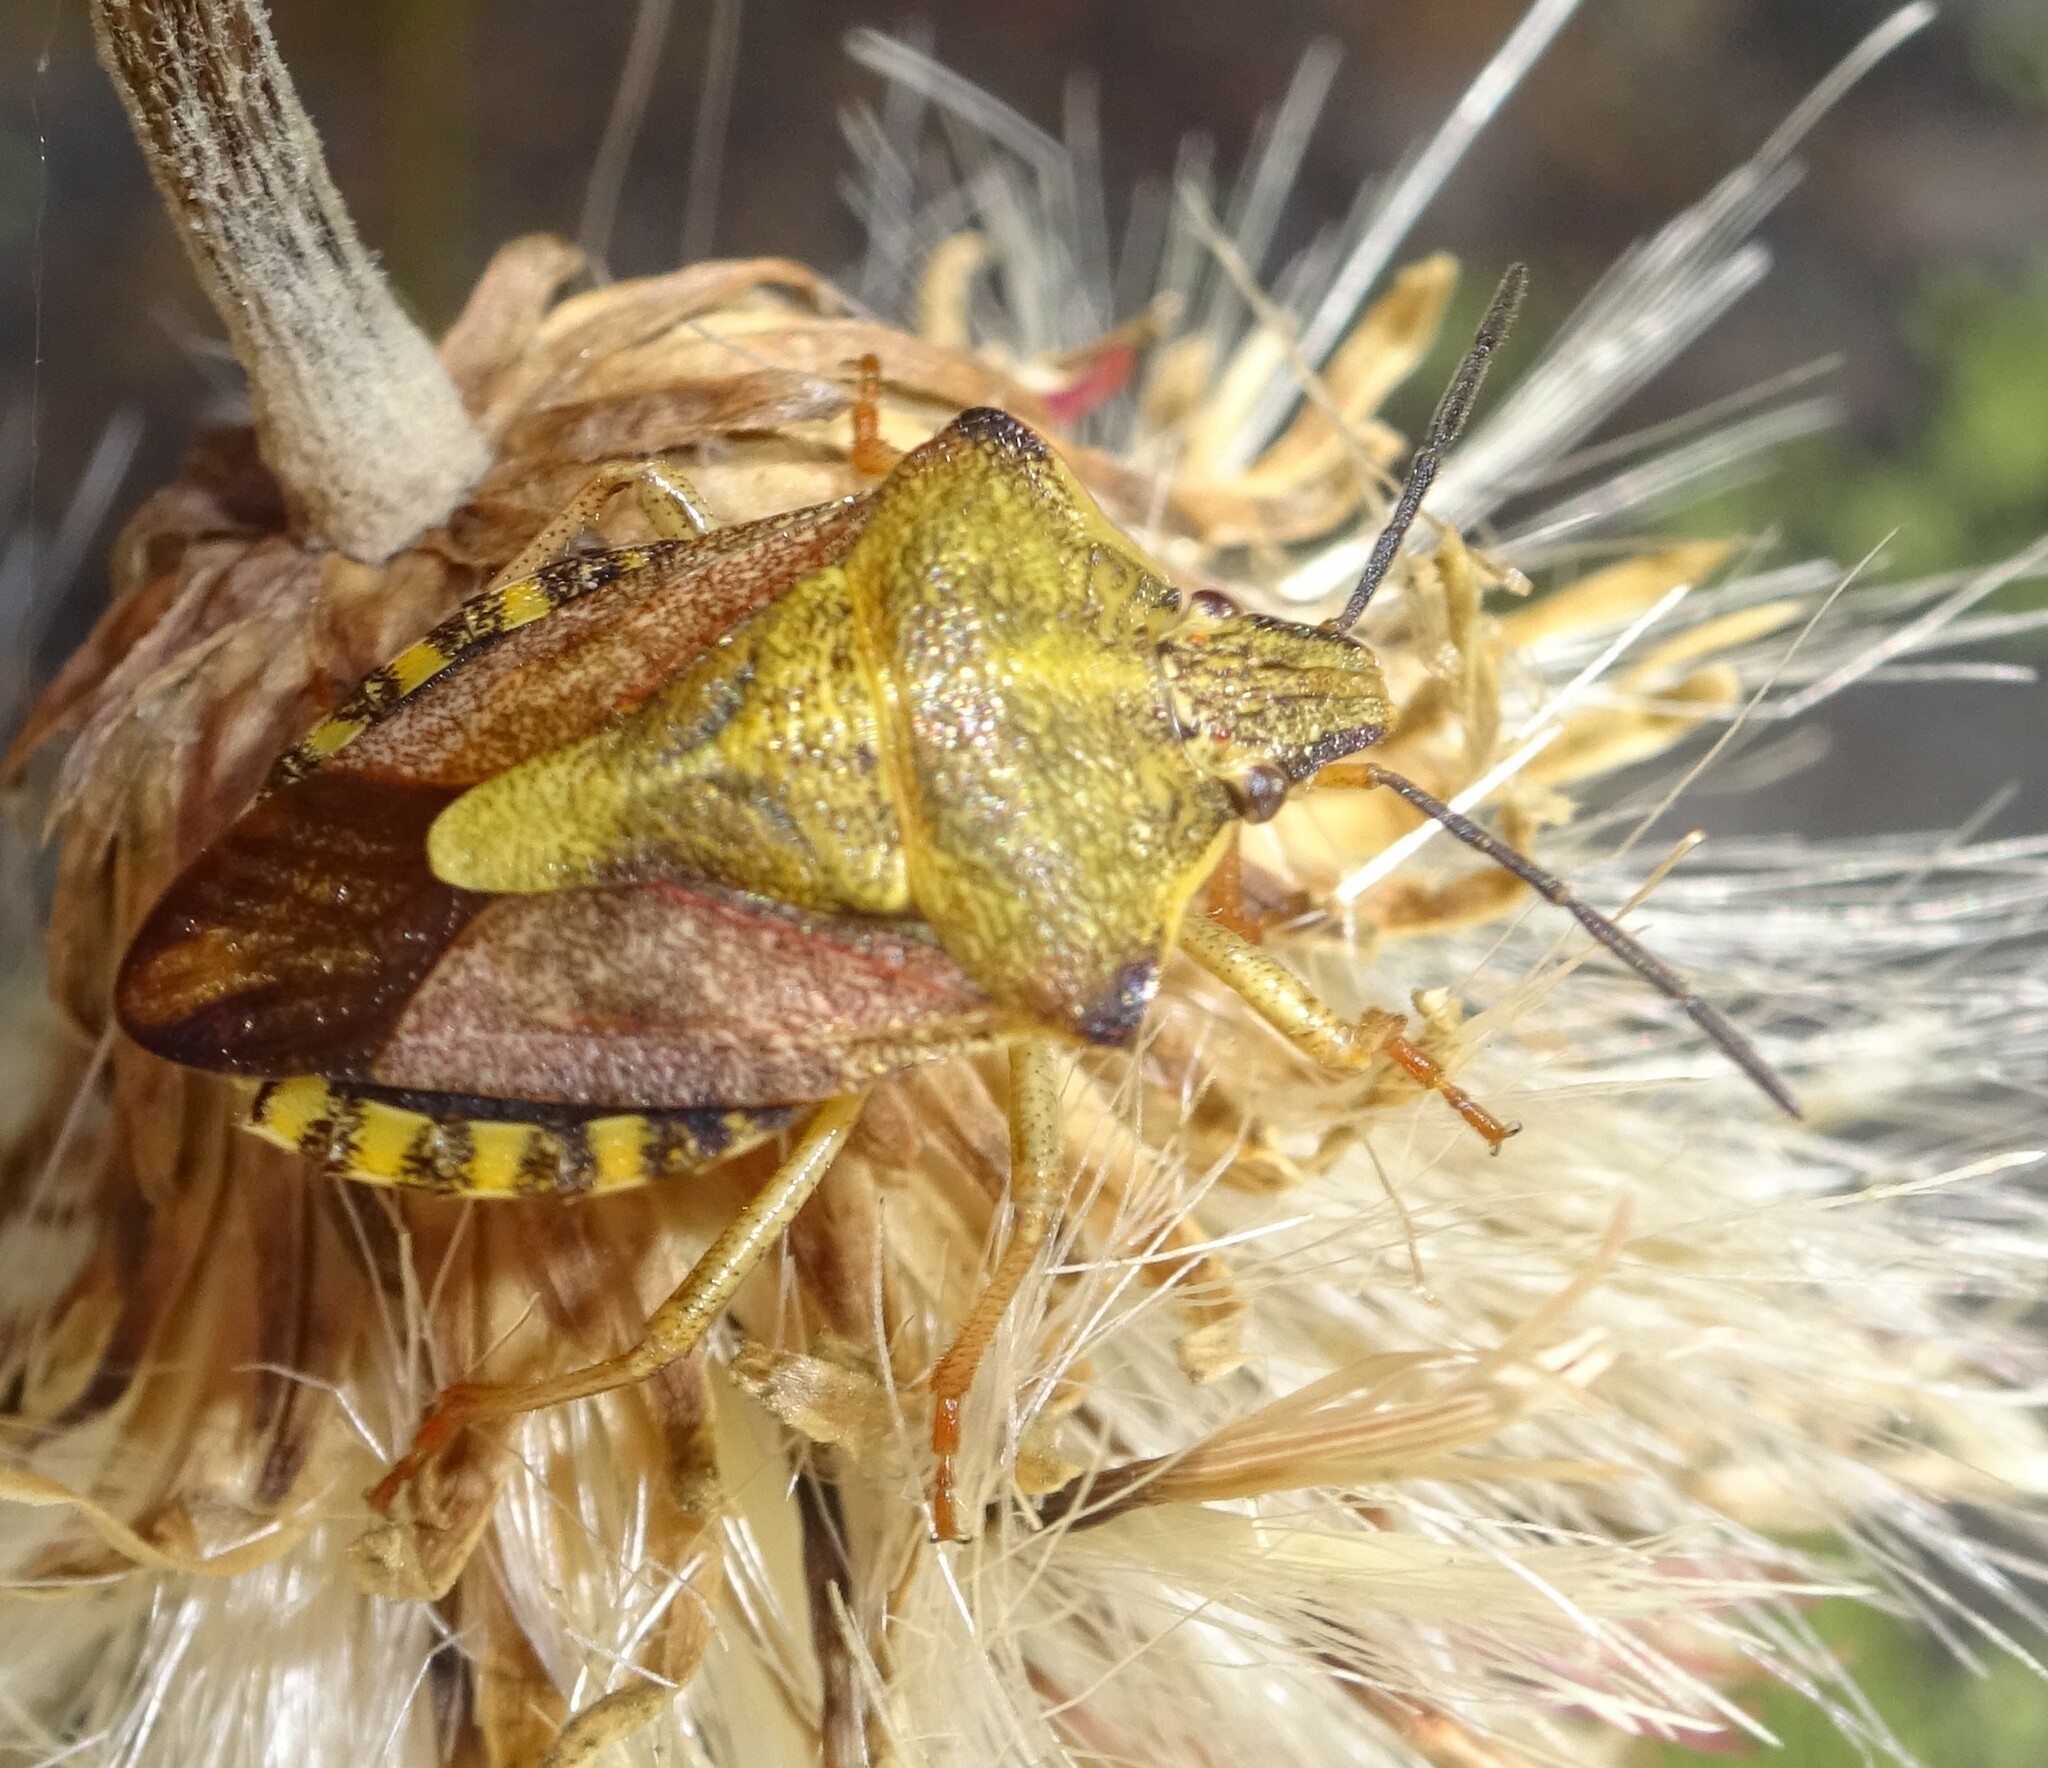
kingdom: Animalia
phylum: Arthropoda
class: Insecta
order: Hemiptera
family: Pentatomidae
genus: Carpocoris
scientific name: Carpocoris purpureipennis
